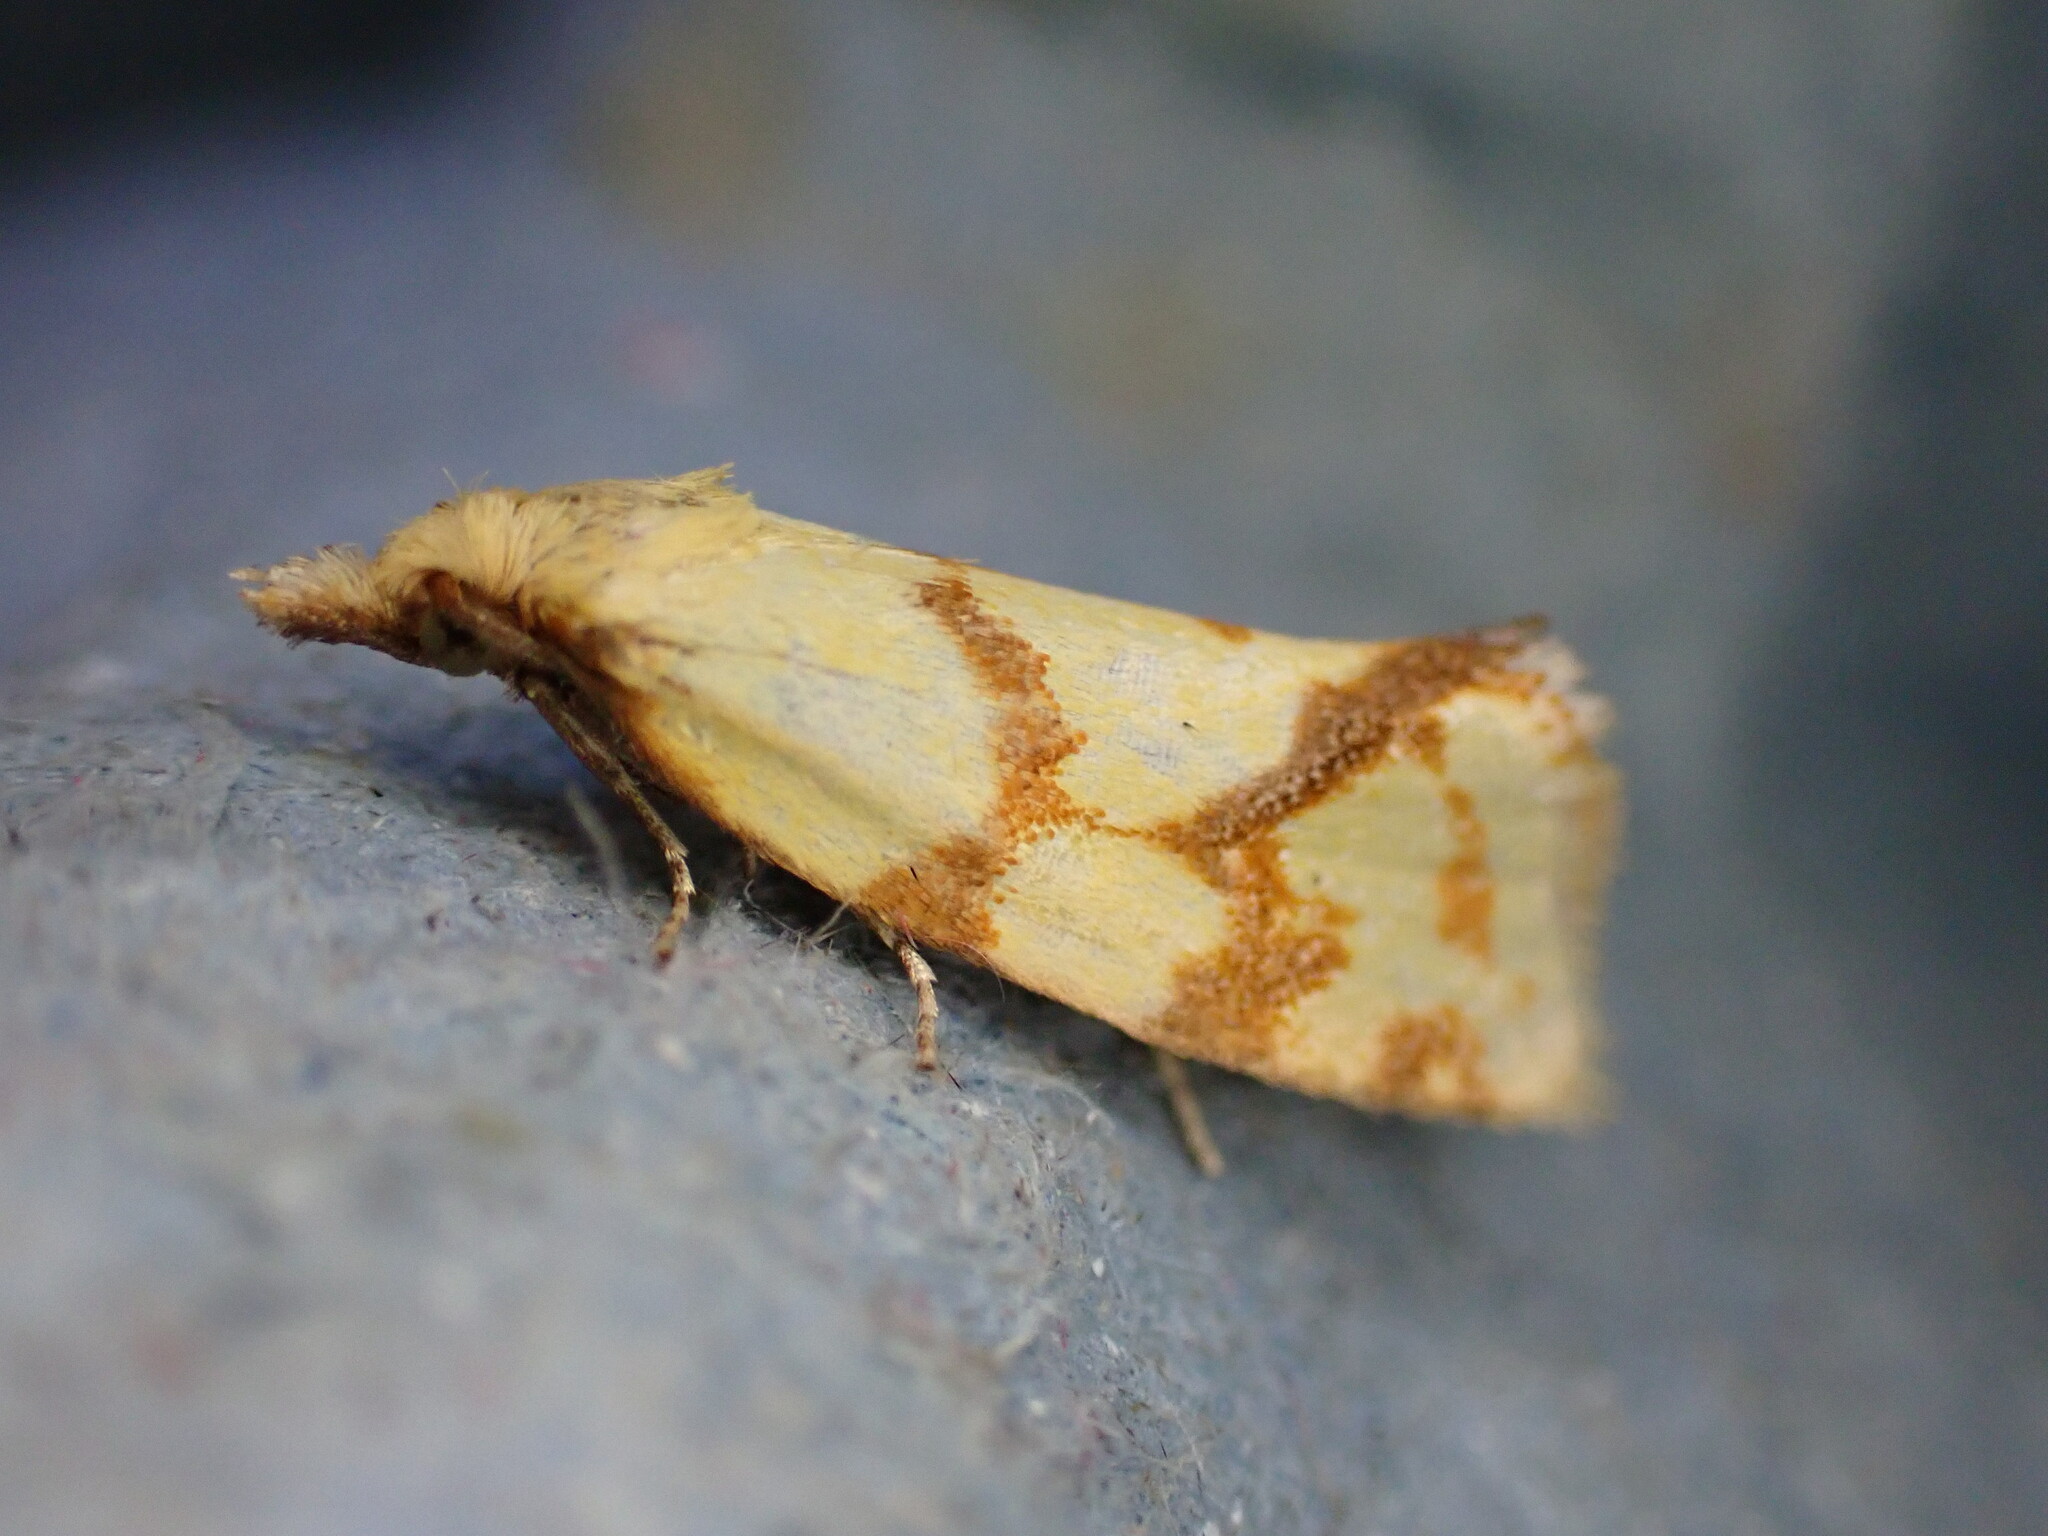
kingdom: Animalia
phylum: Arthropoda
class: Insecta
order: Lepidoptera
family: Tortricidae
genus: Agapeta
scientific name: Agapeta hamana
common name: Common yellow conch
